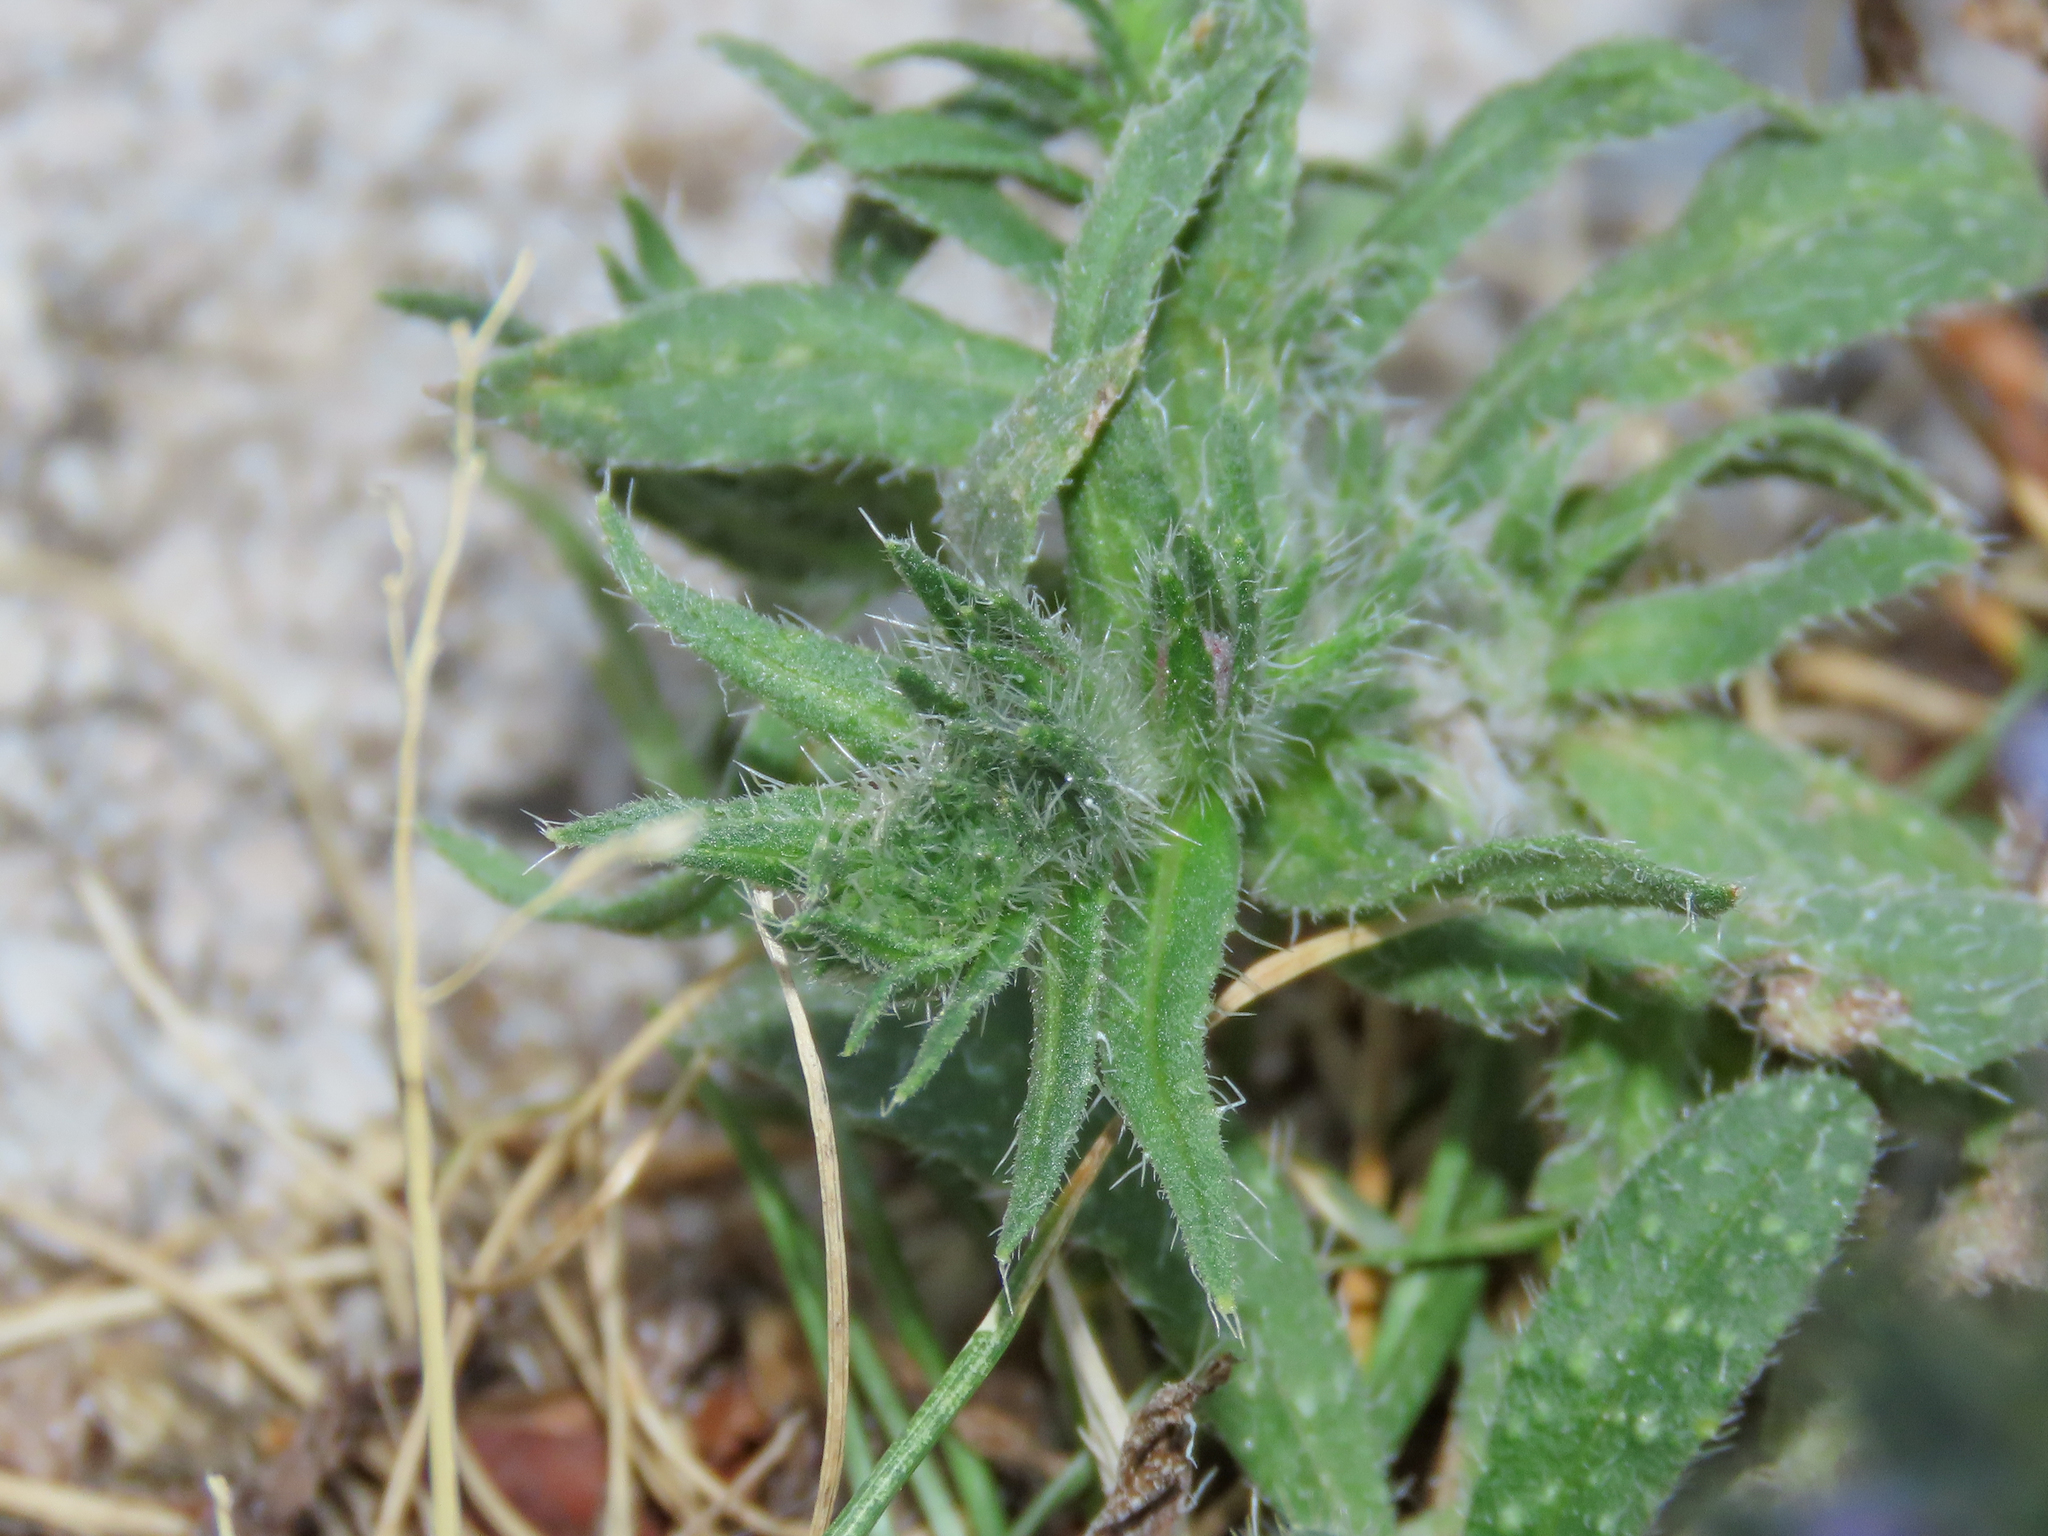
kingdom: Plantae
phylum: Tracheophyta
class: Magnoliopsida
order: Boraginales
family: Boraginaceae
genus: Echium
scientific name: Echium vulgare
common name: Common viper's bugloss
